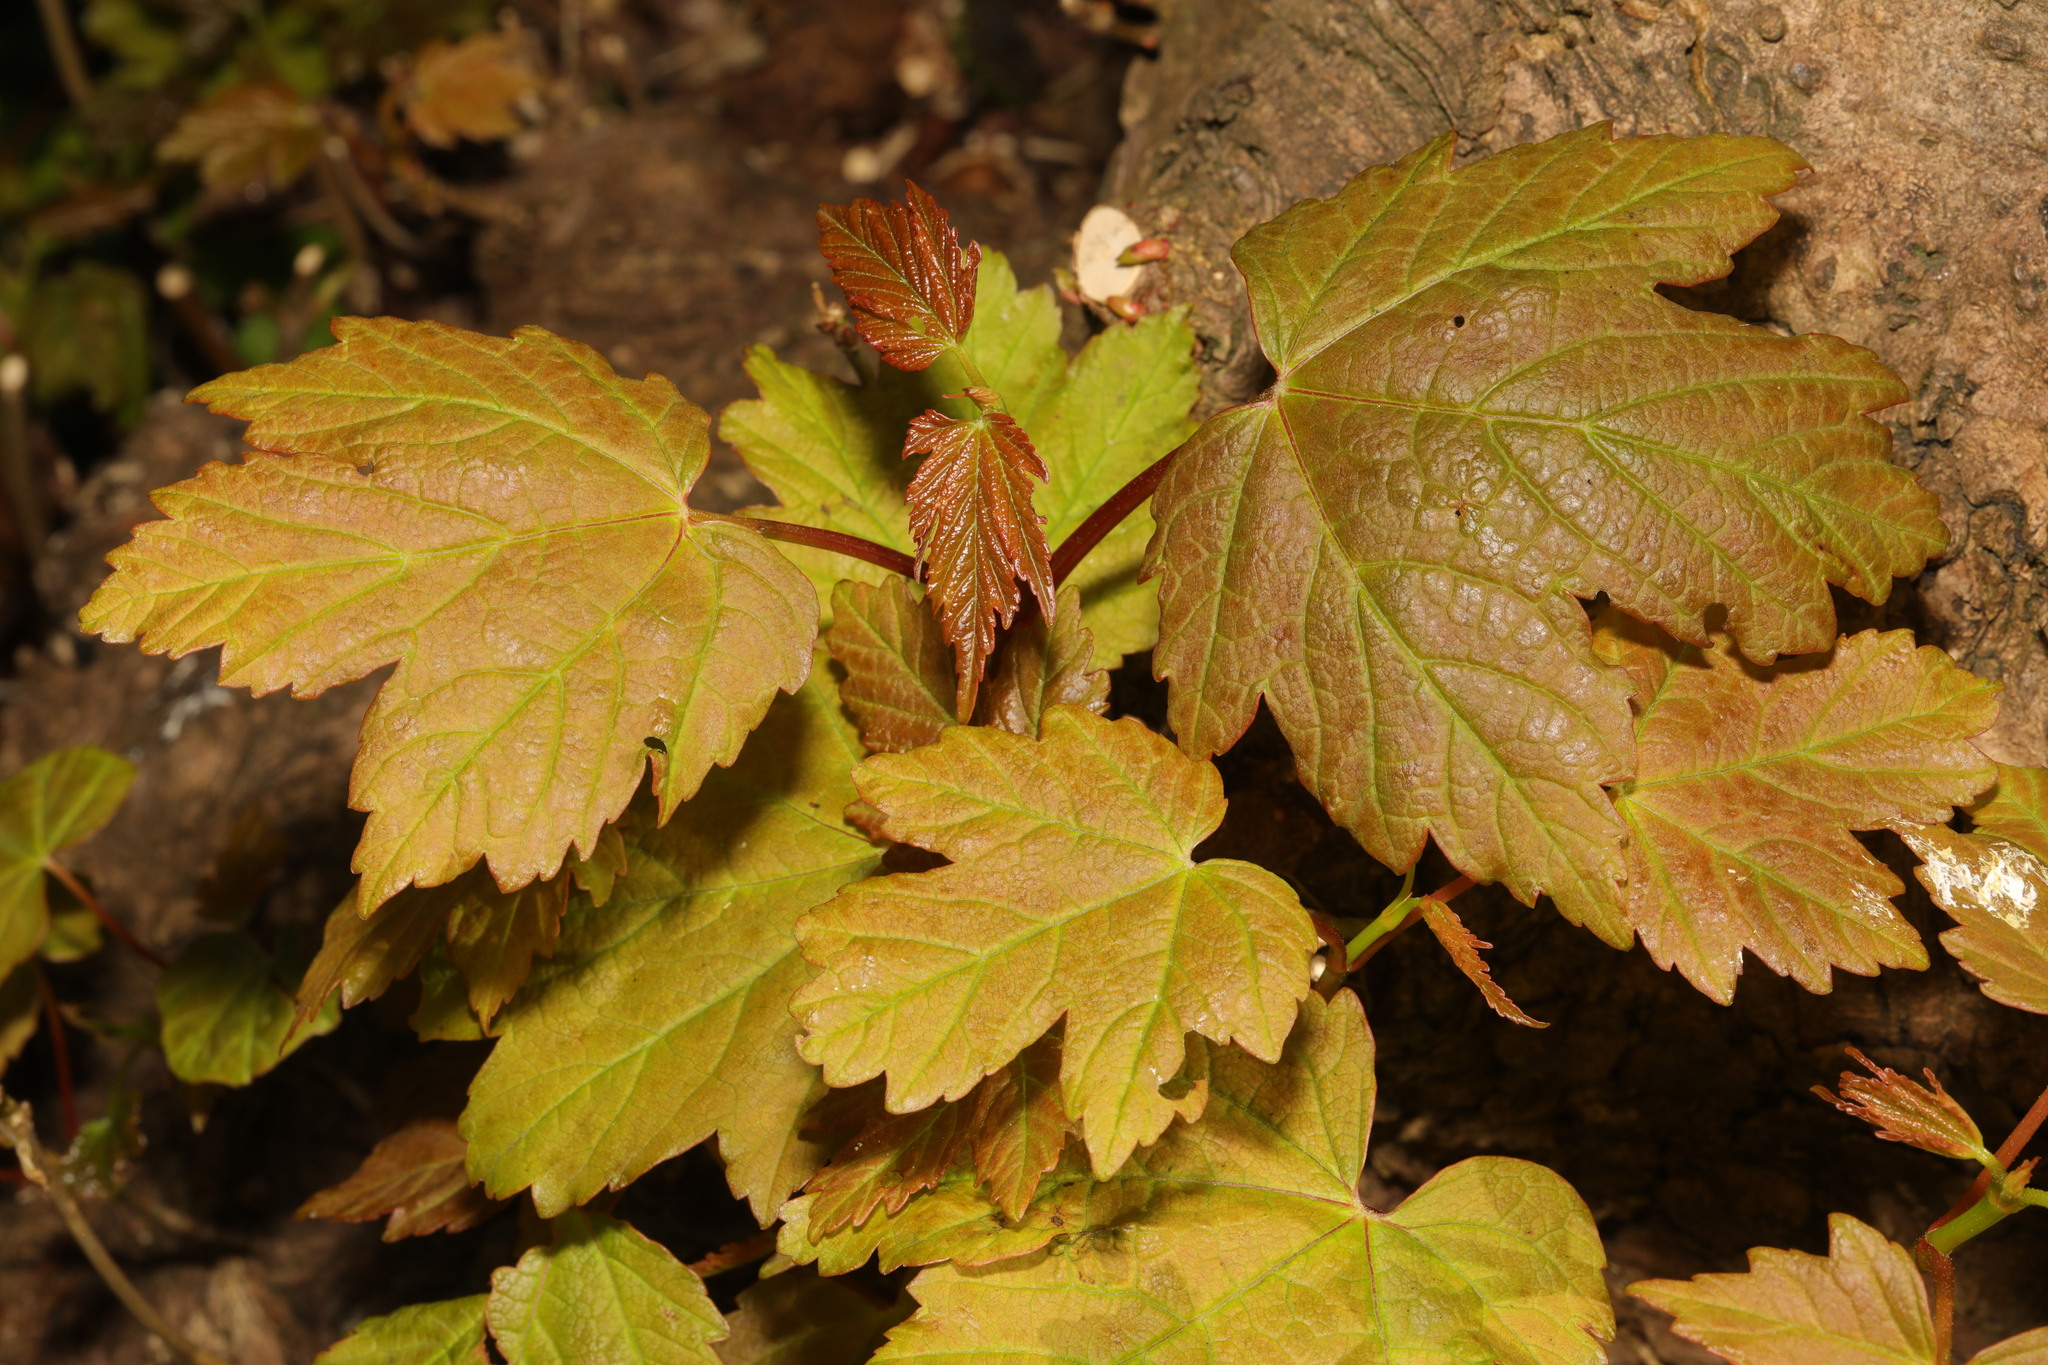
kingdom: Plantae
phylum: Tracheophyta
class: Magnoliopsida
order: Sapindales
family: Sapindaceae
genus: Acer
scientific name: Acer pseudoplatanus
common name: Sycamore
